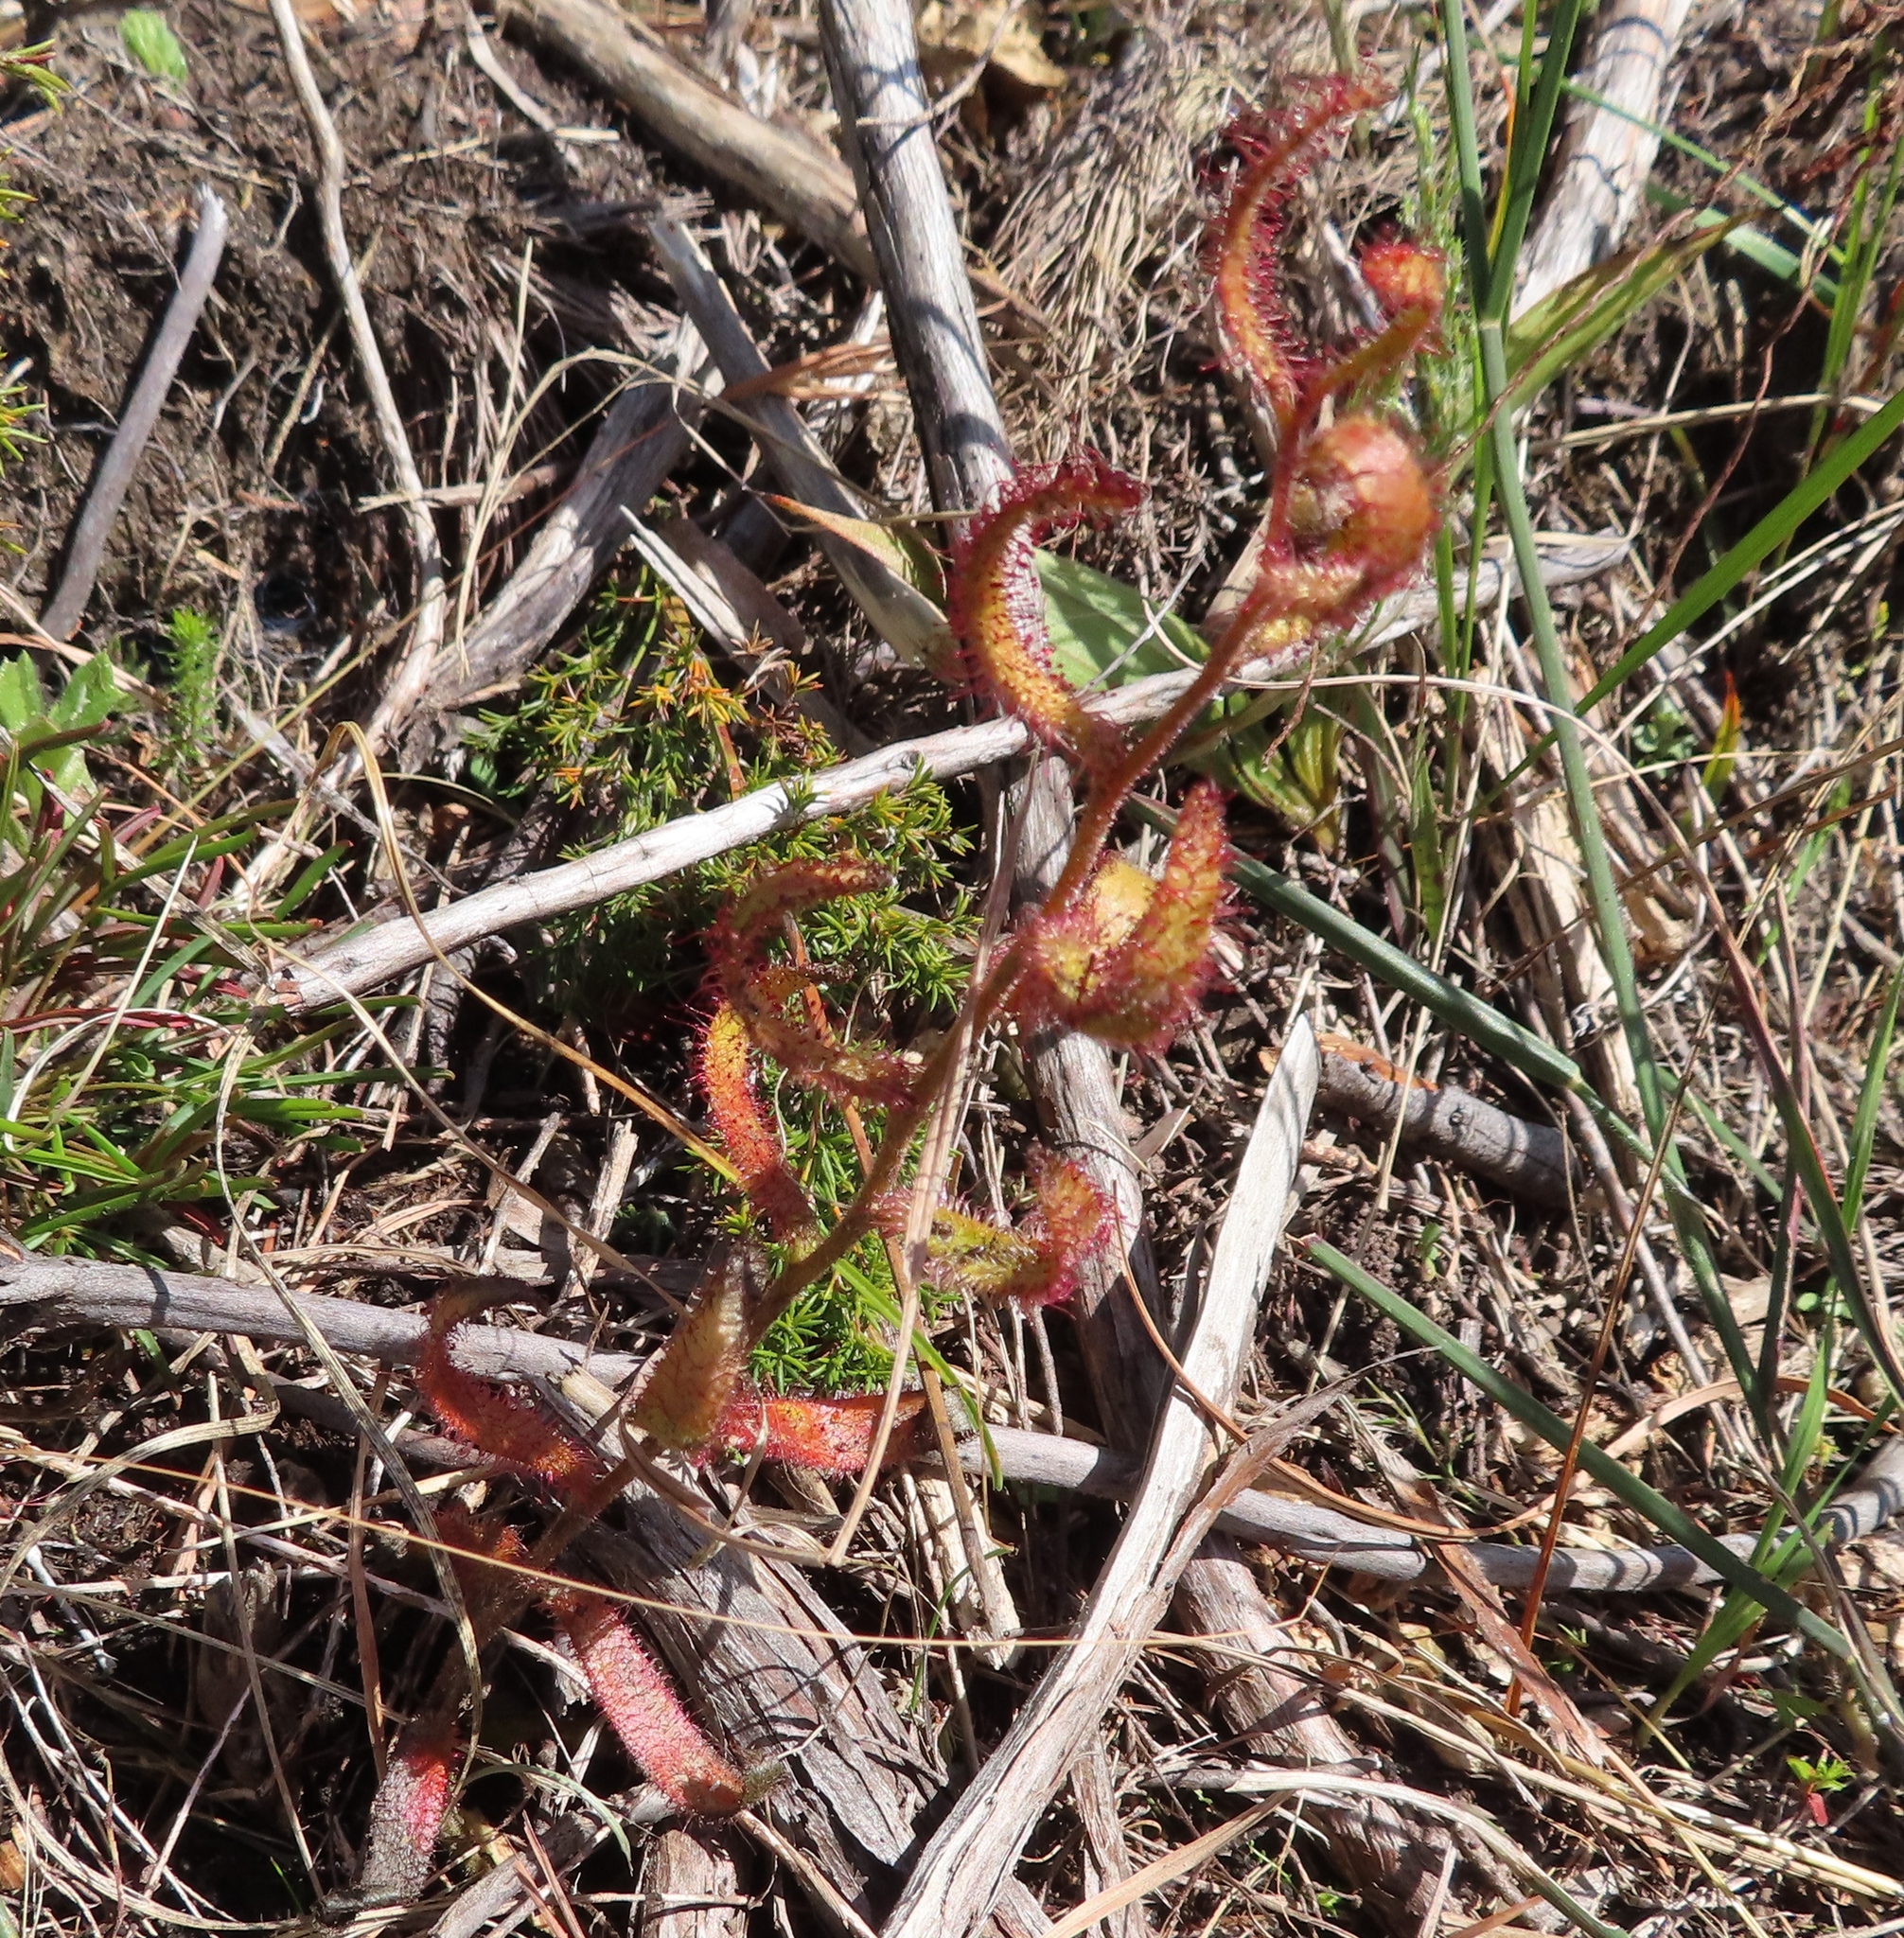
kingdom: Plantae
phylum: Tracheophyta
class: Magnoliopsida
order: Caryophyllales
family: Droseraceae
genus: Drosera
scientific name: Drosera cistiflora
